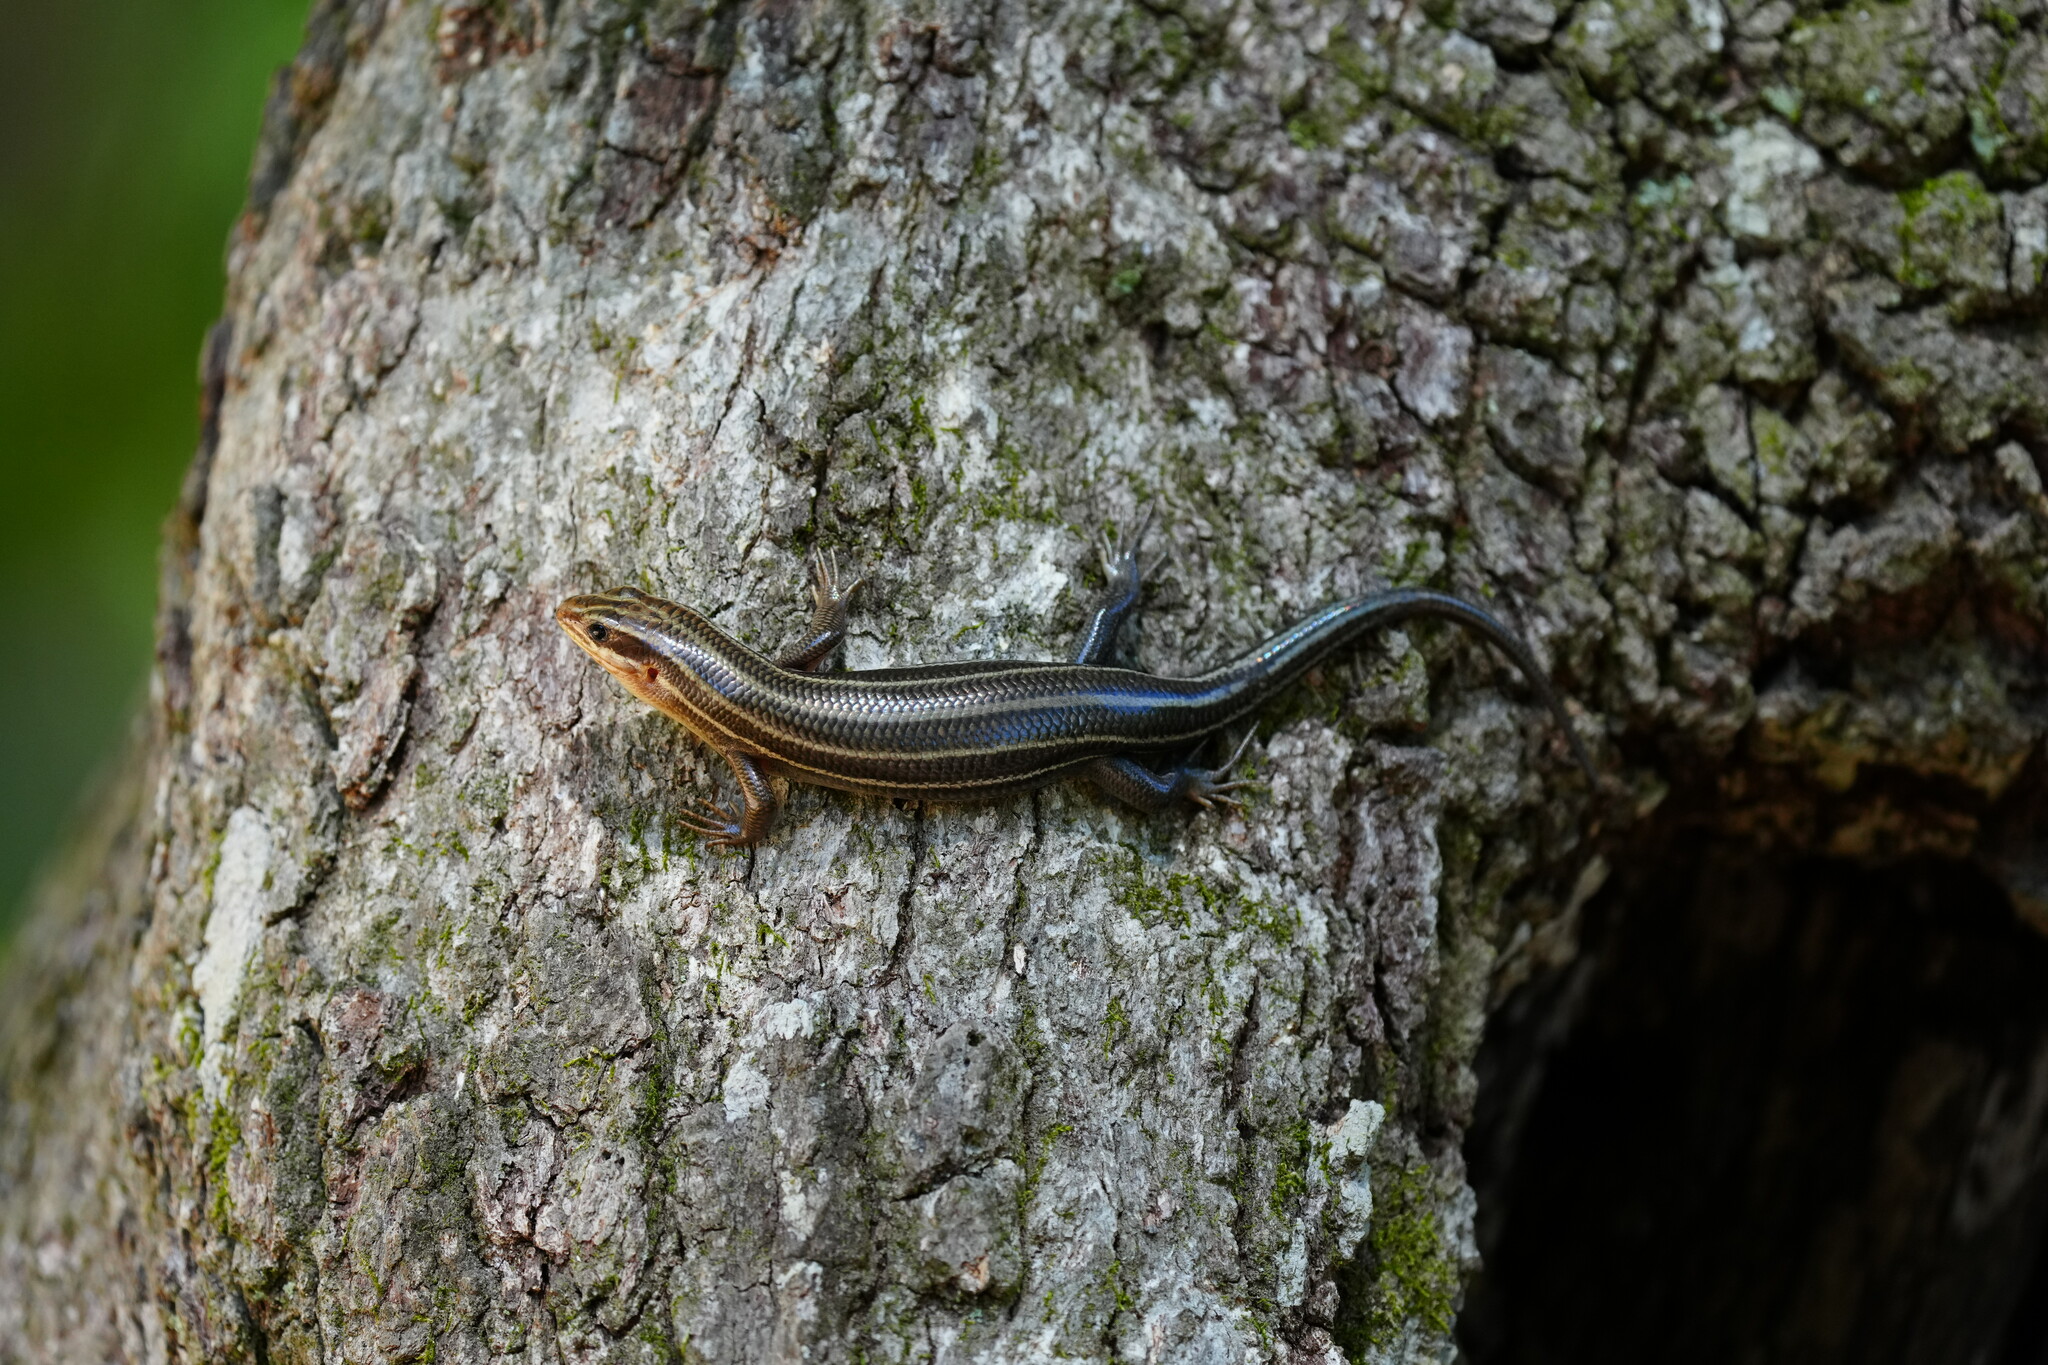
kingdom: Animalia
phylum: Chordata
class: Squamata
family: Scincidae
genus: Plestiodon
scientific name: Plestiodon fasciatus
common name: Five-lined skink
